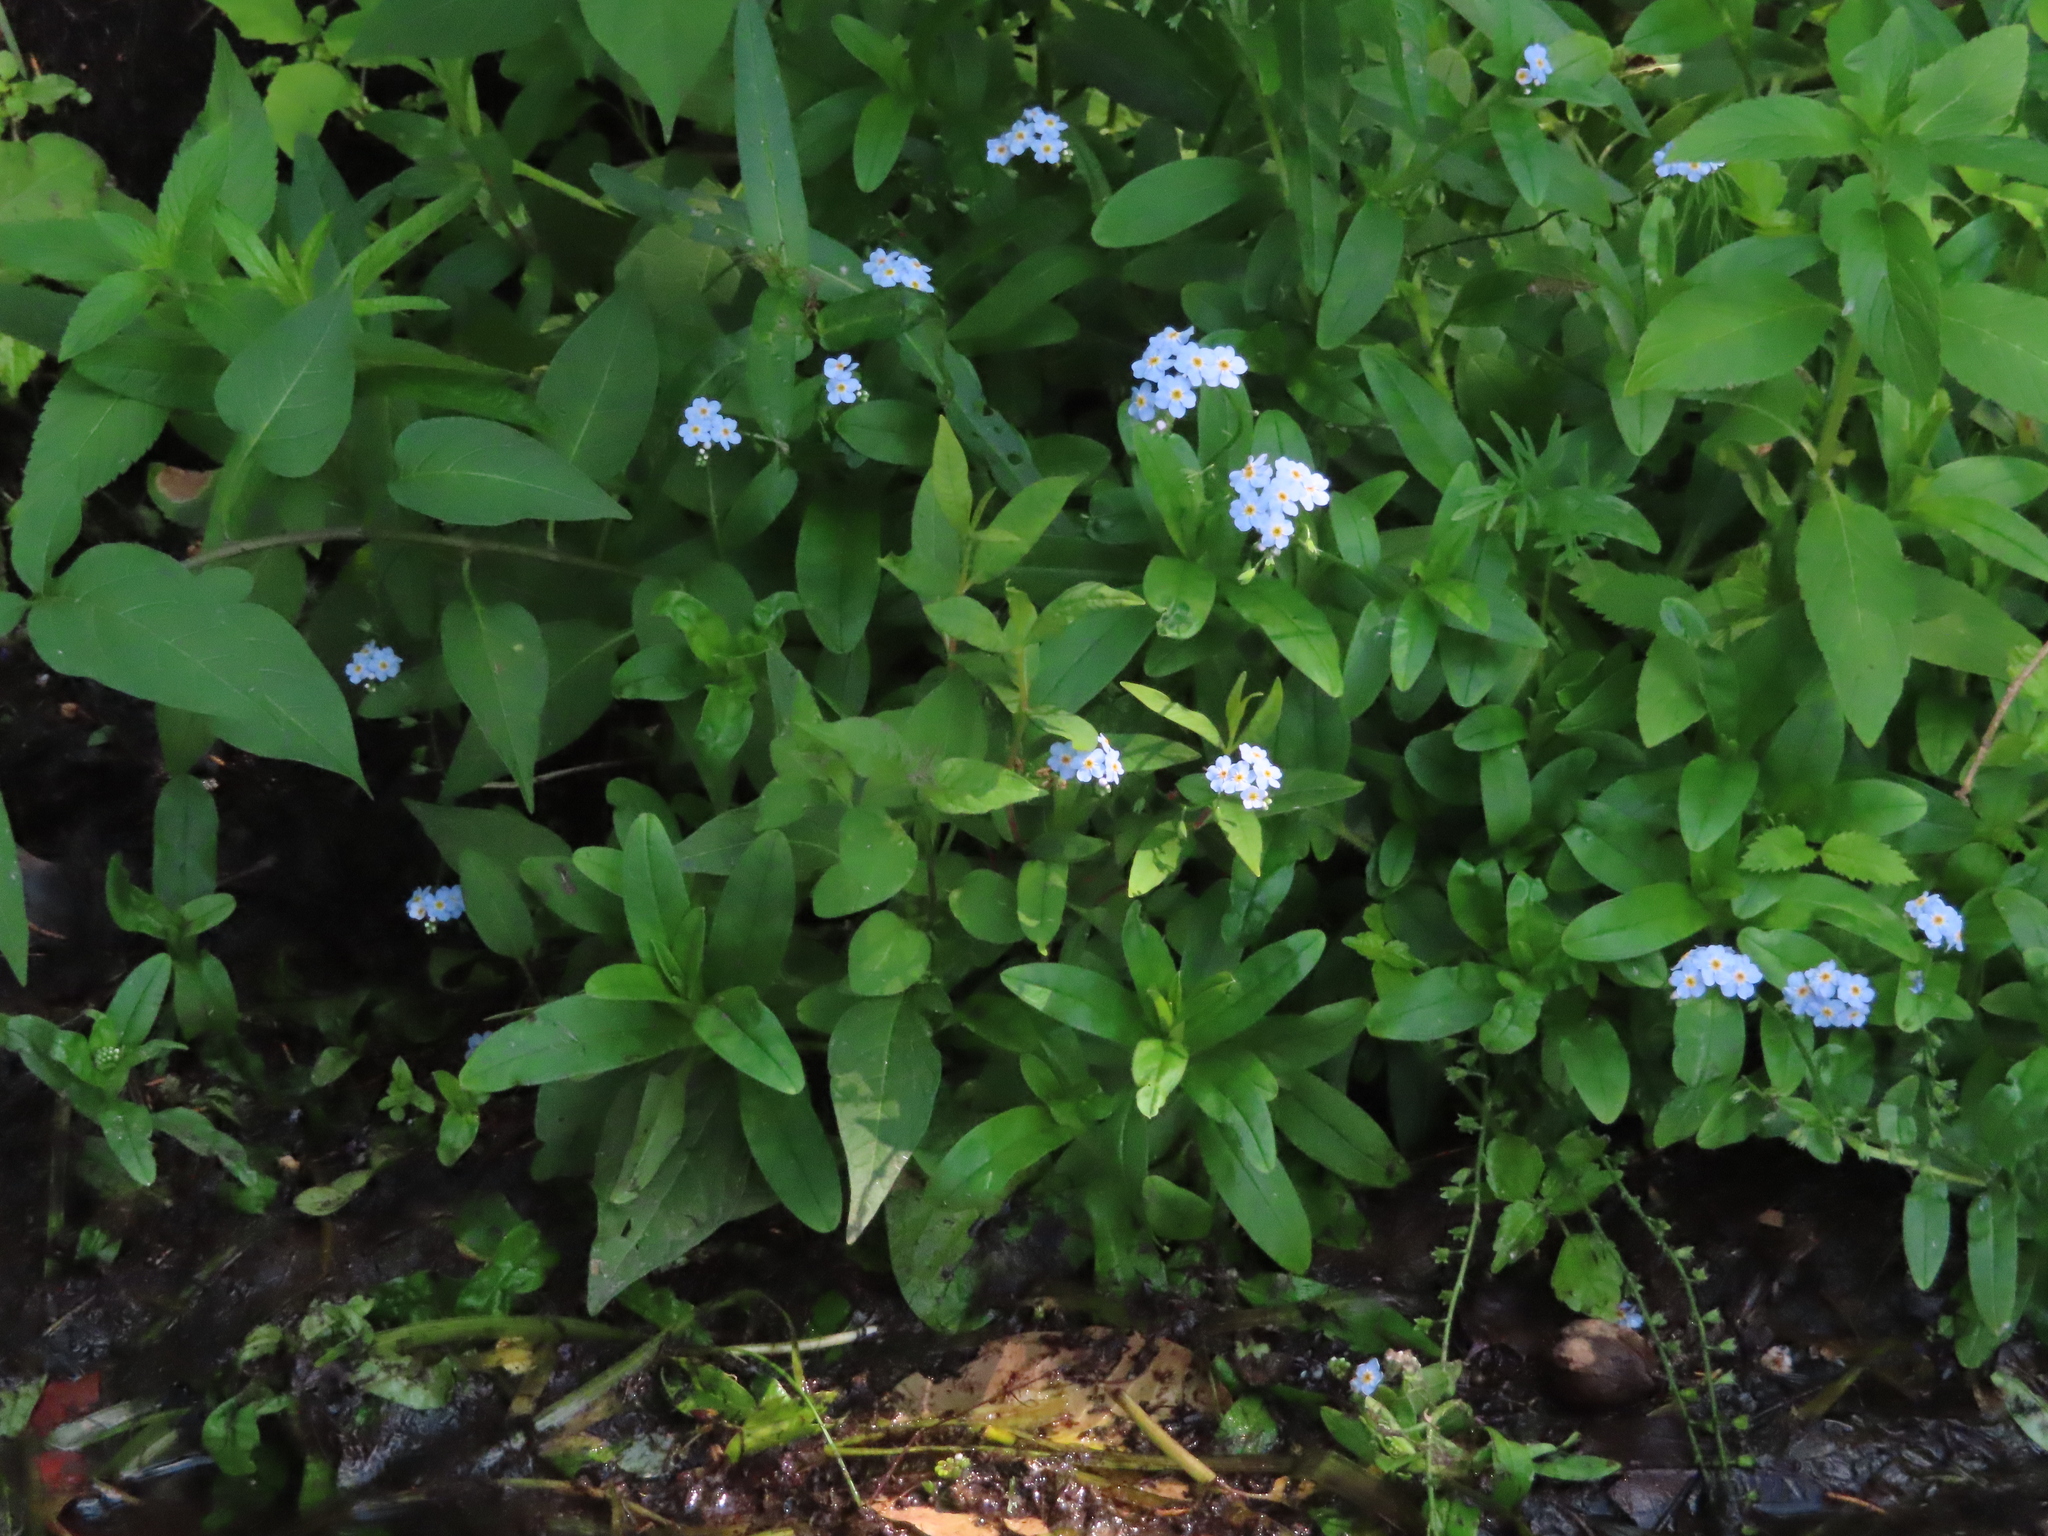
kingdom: Plantae
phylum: Tracheophyta
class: Magnoliopsida
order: Boraginales
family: Boraginaceae
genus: Myosotis
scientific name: Myosotis scorpioides
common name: Water forget-me-not
